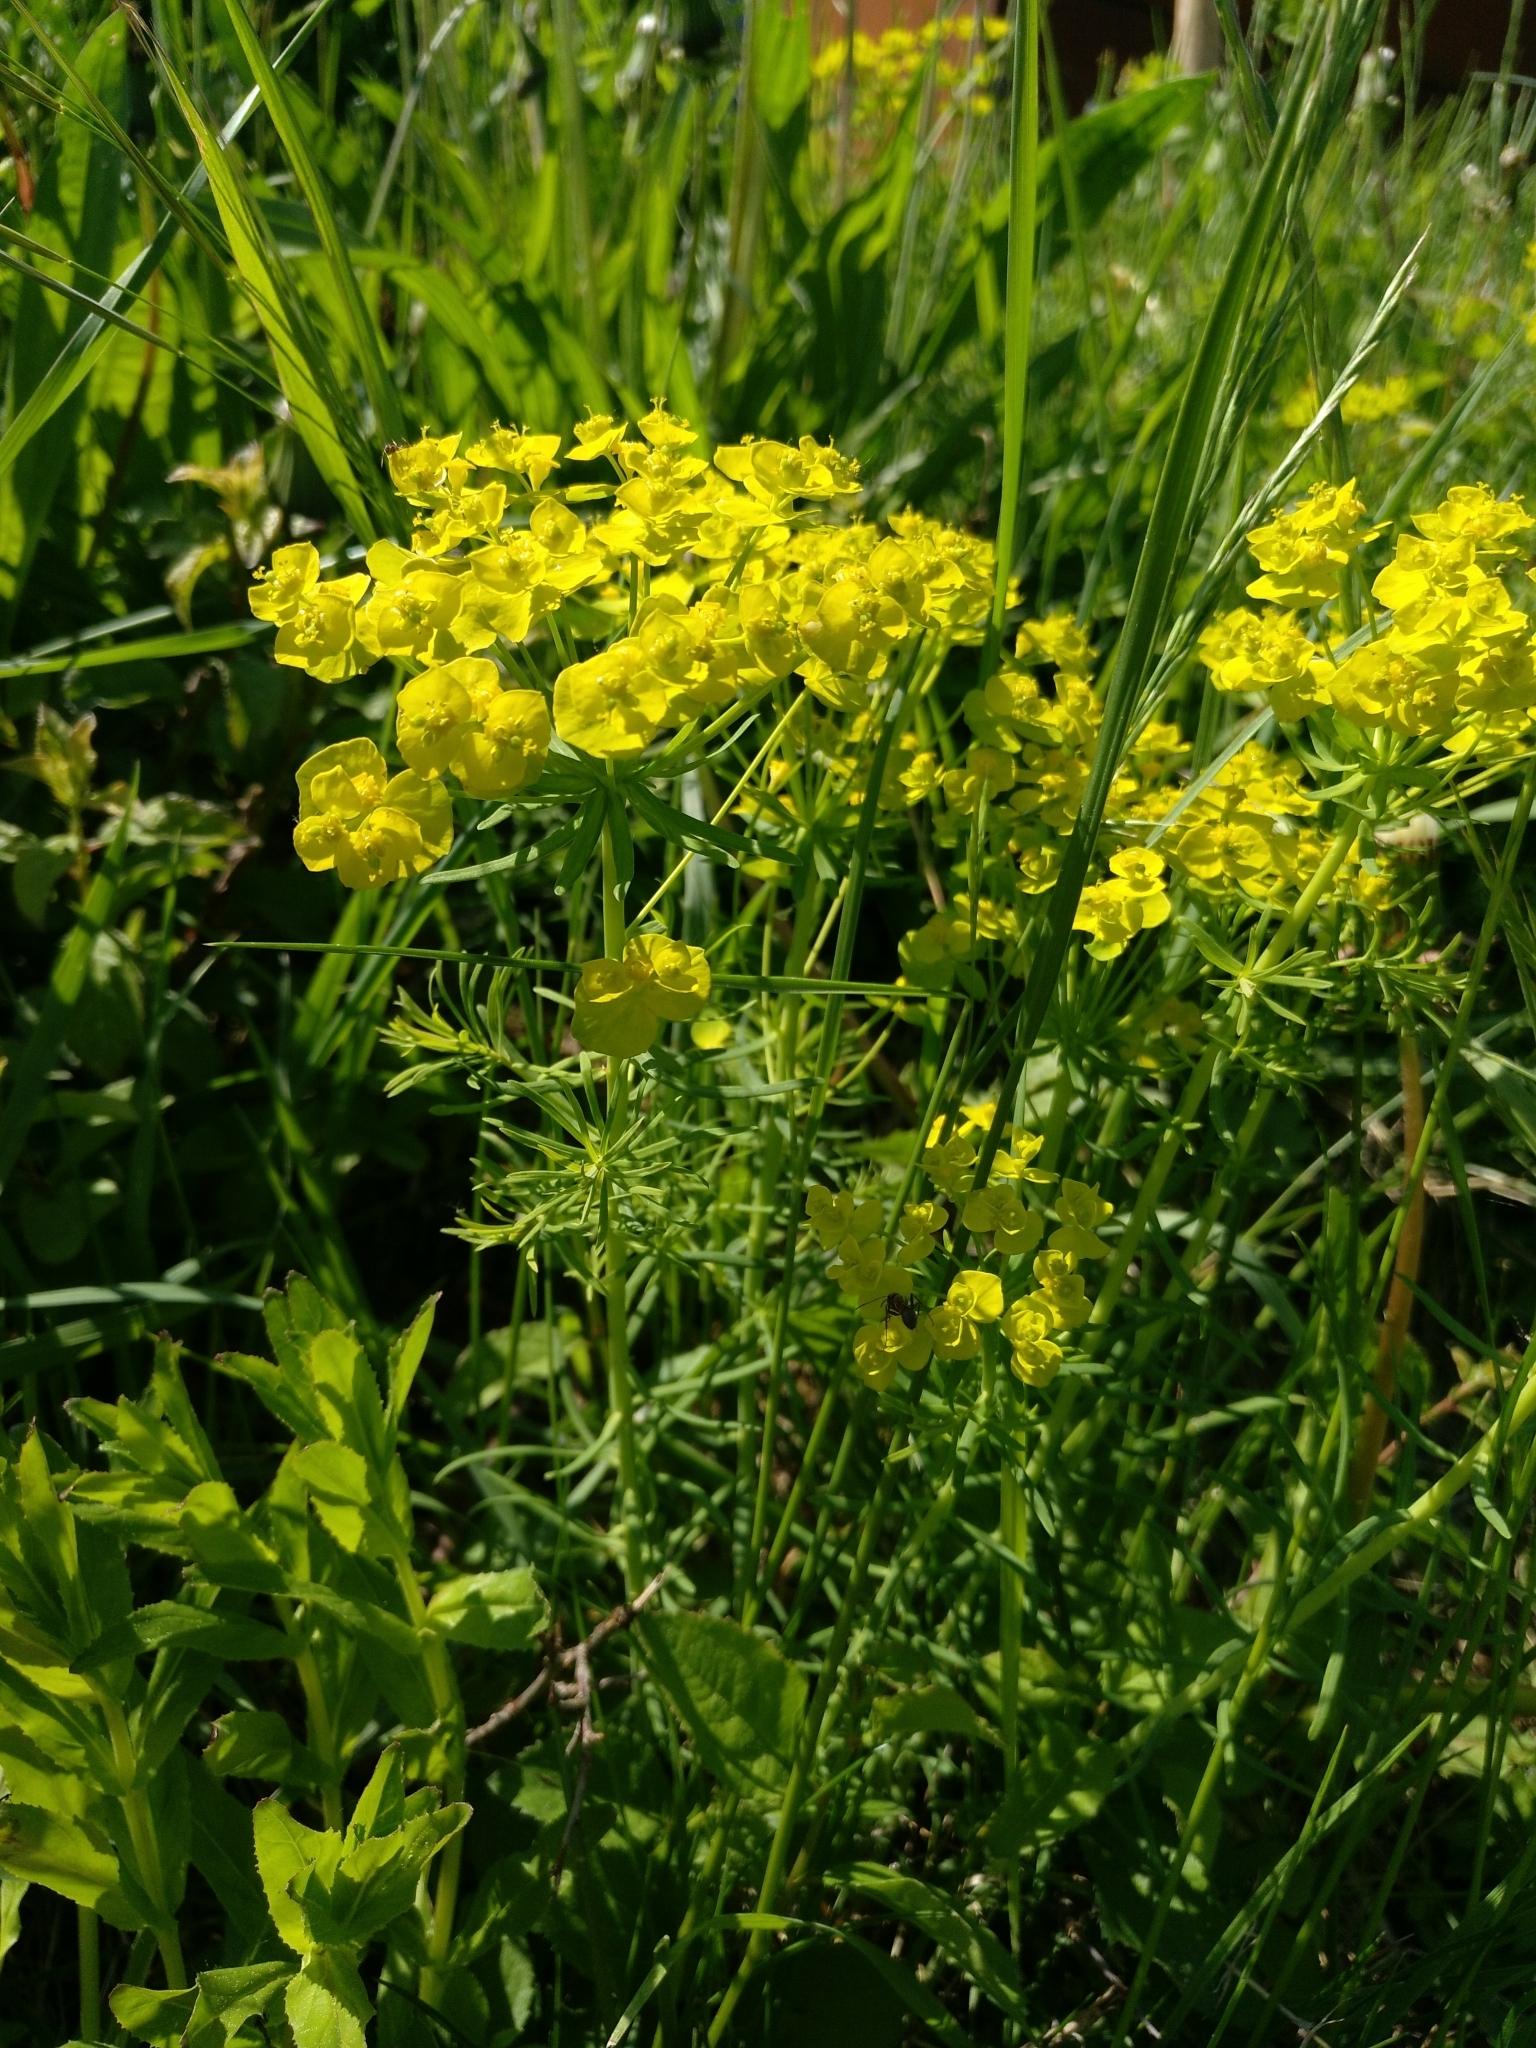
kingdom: Plantae
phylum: Tracheophyta
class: Magnoliopsida
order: Malpighiales
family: Euphorbiaceae
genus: Euphorbia
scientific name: Euphorbia cyparissias
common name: Cypress spurge
